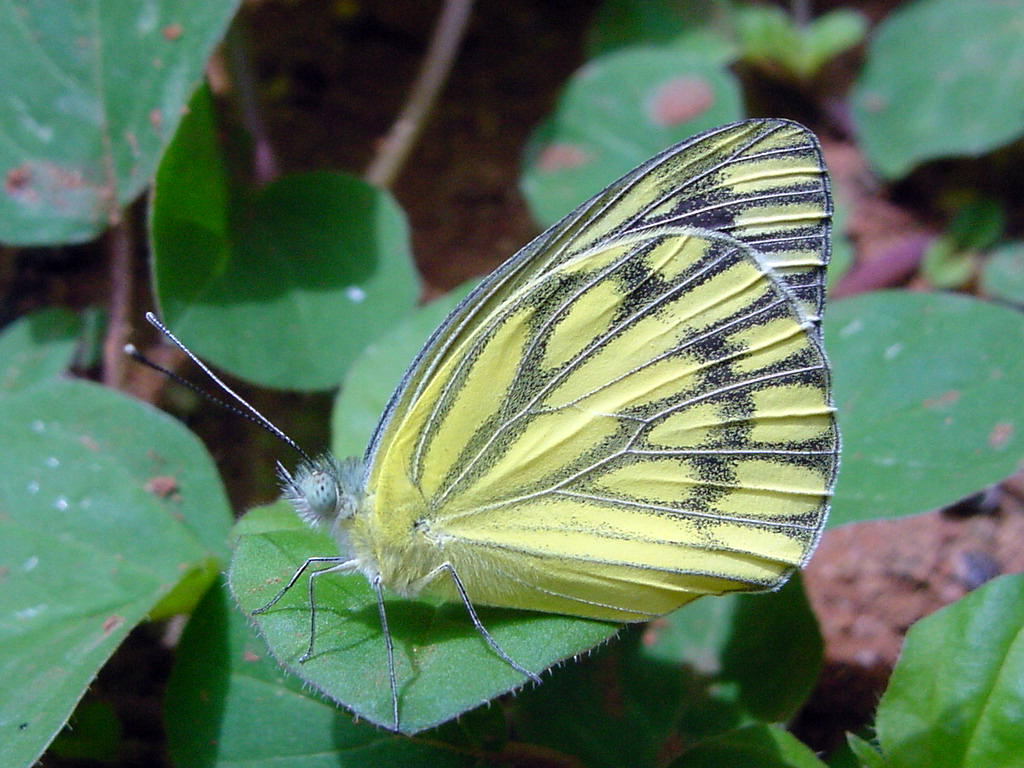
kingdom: Animalia
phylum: Arthropoda
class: Insecta
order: Lepidoptera
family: Pieridae
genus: Cepora
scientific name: Cepora nerissa
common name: Common gull
